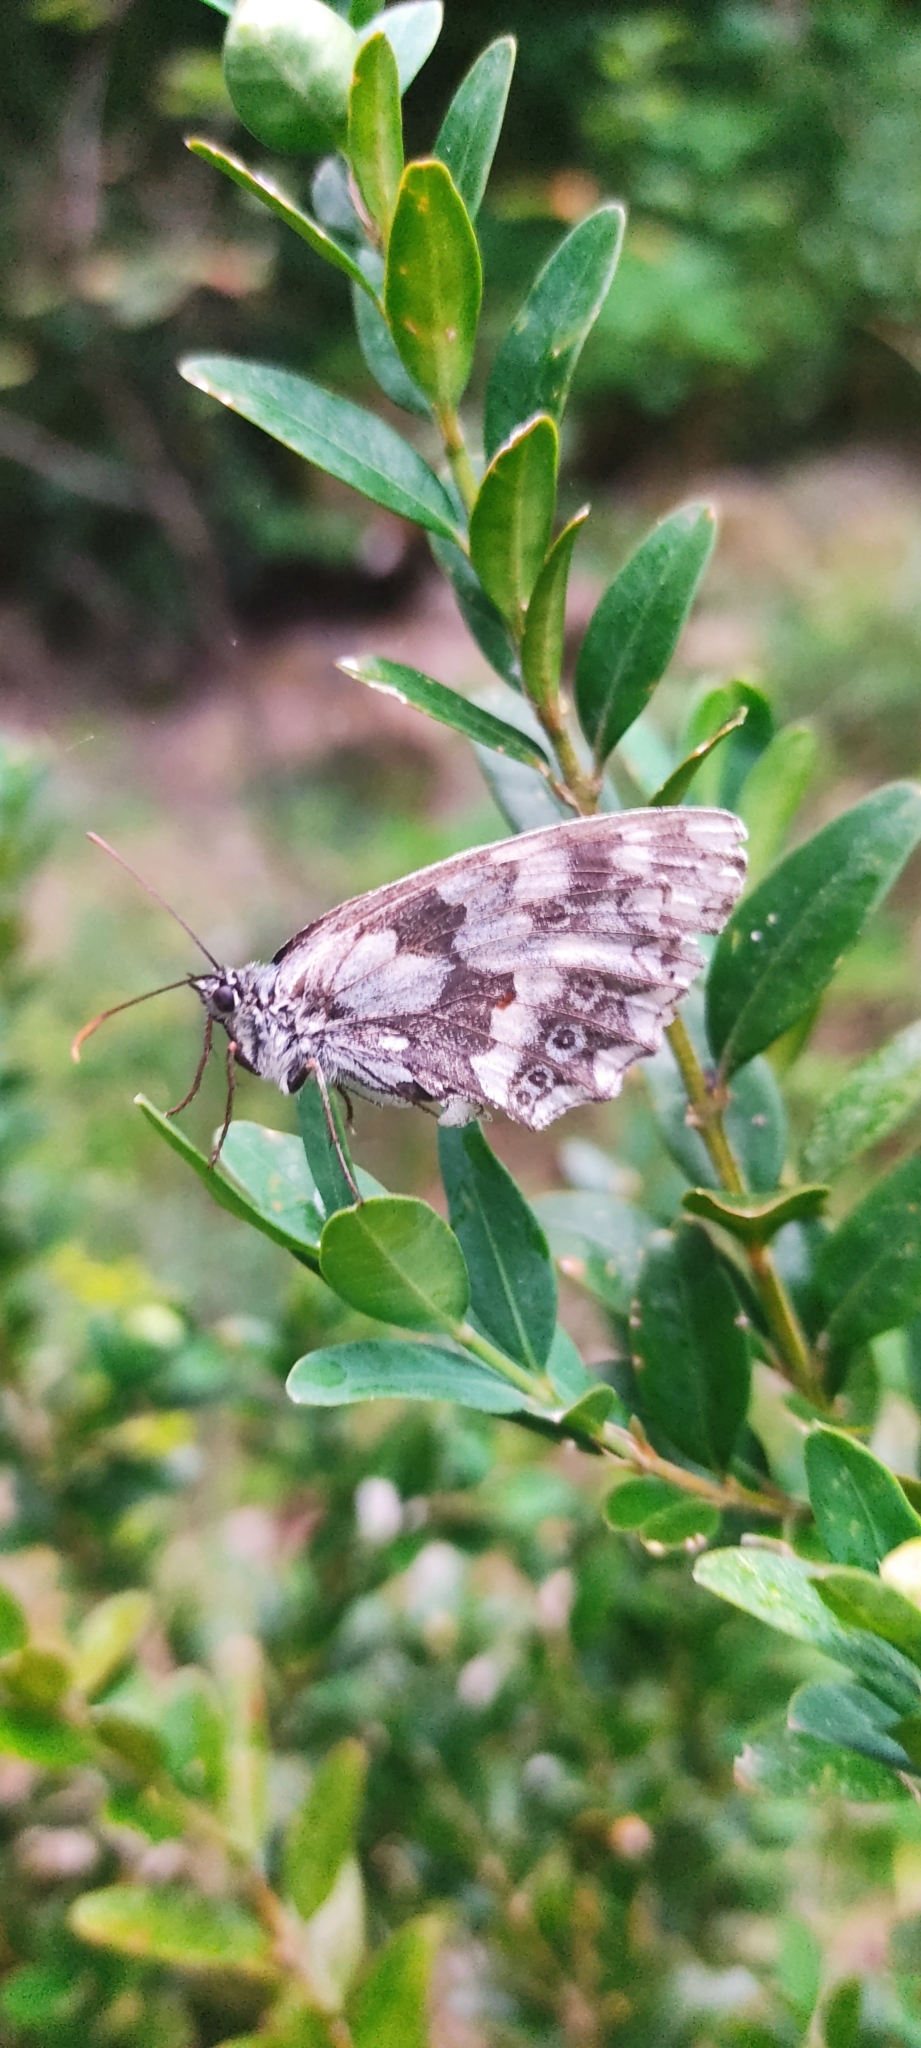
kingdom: Animalia
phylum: Arthropoda
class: Insecta
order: Lepidoptera
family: Nymphalidae
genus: Melanargia
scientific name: Melanargia galathea
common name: Marbled white
